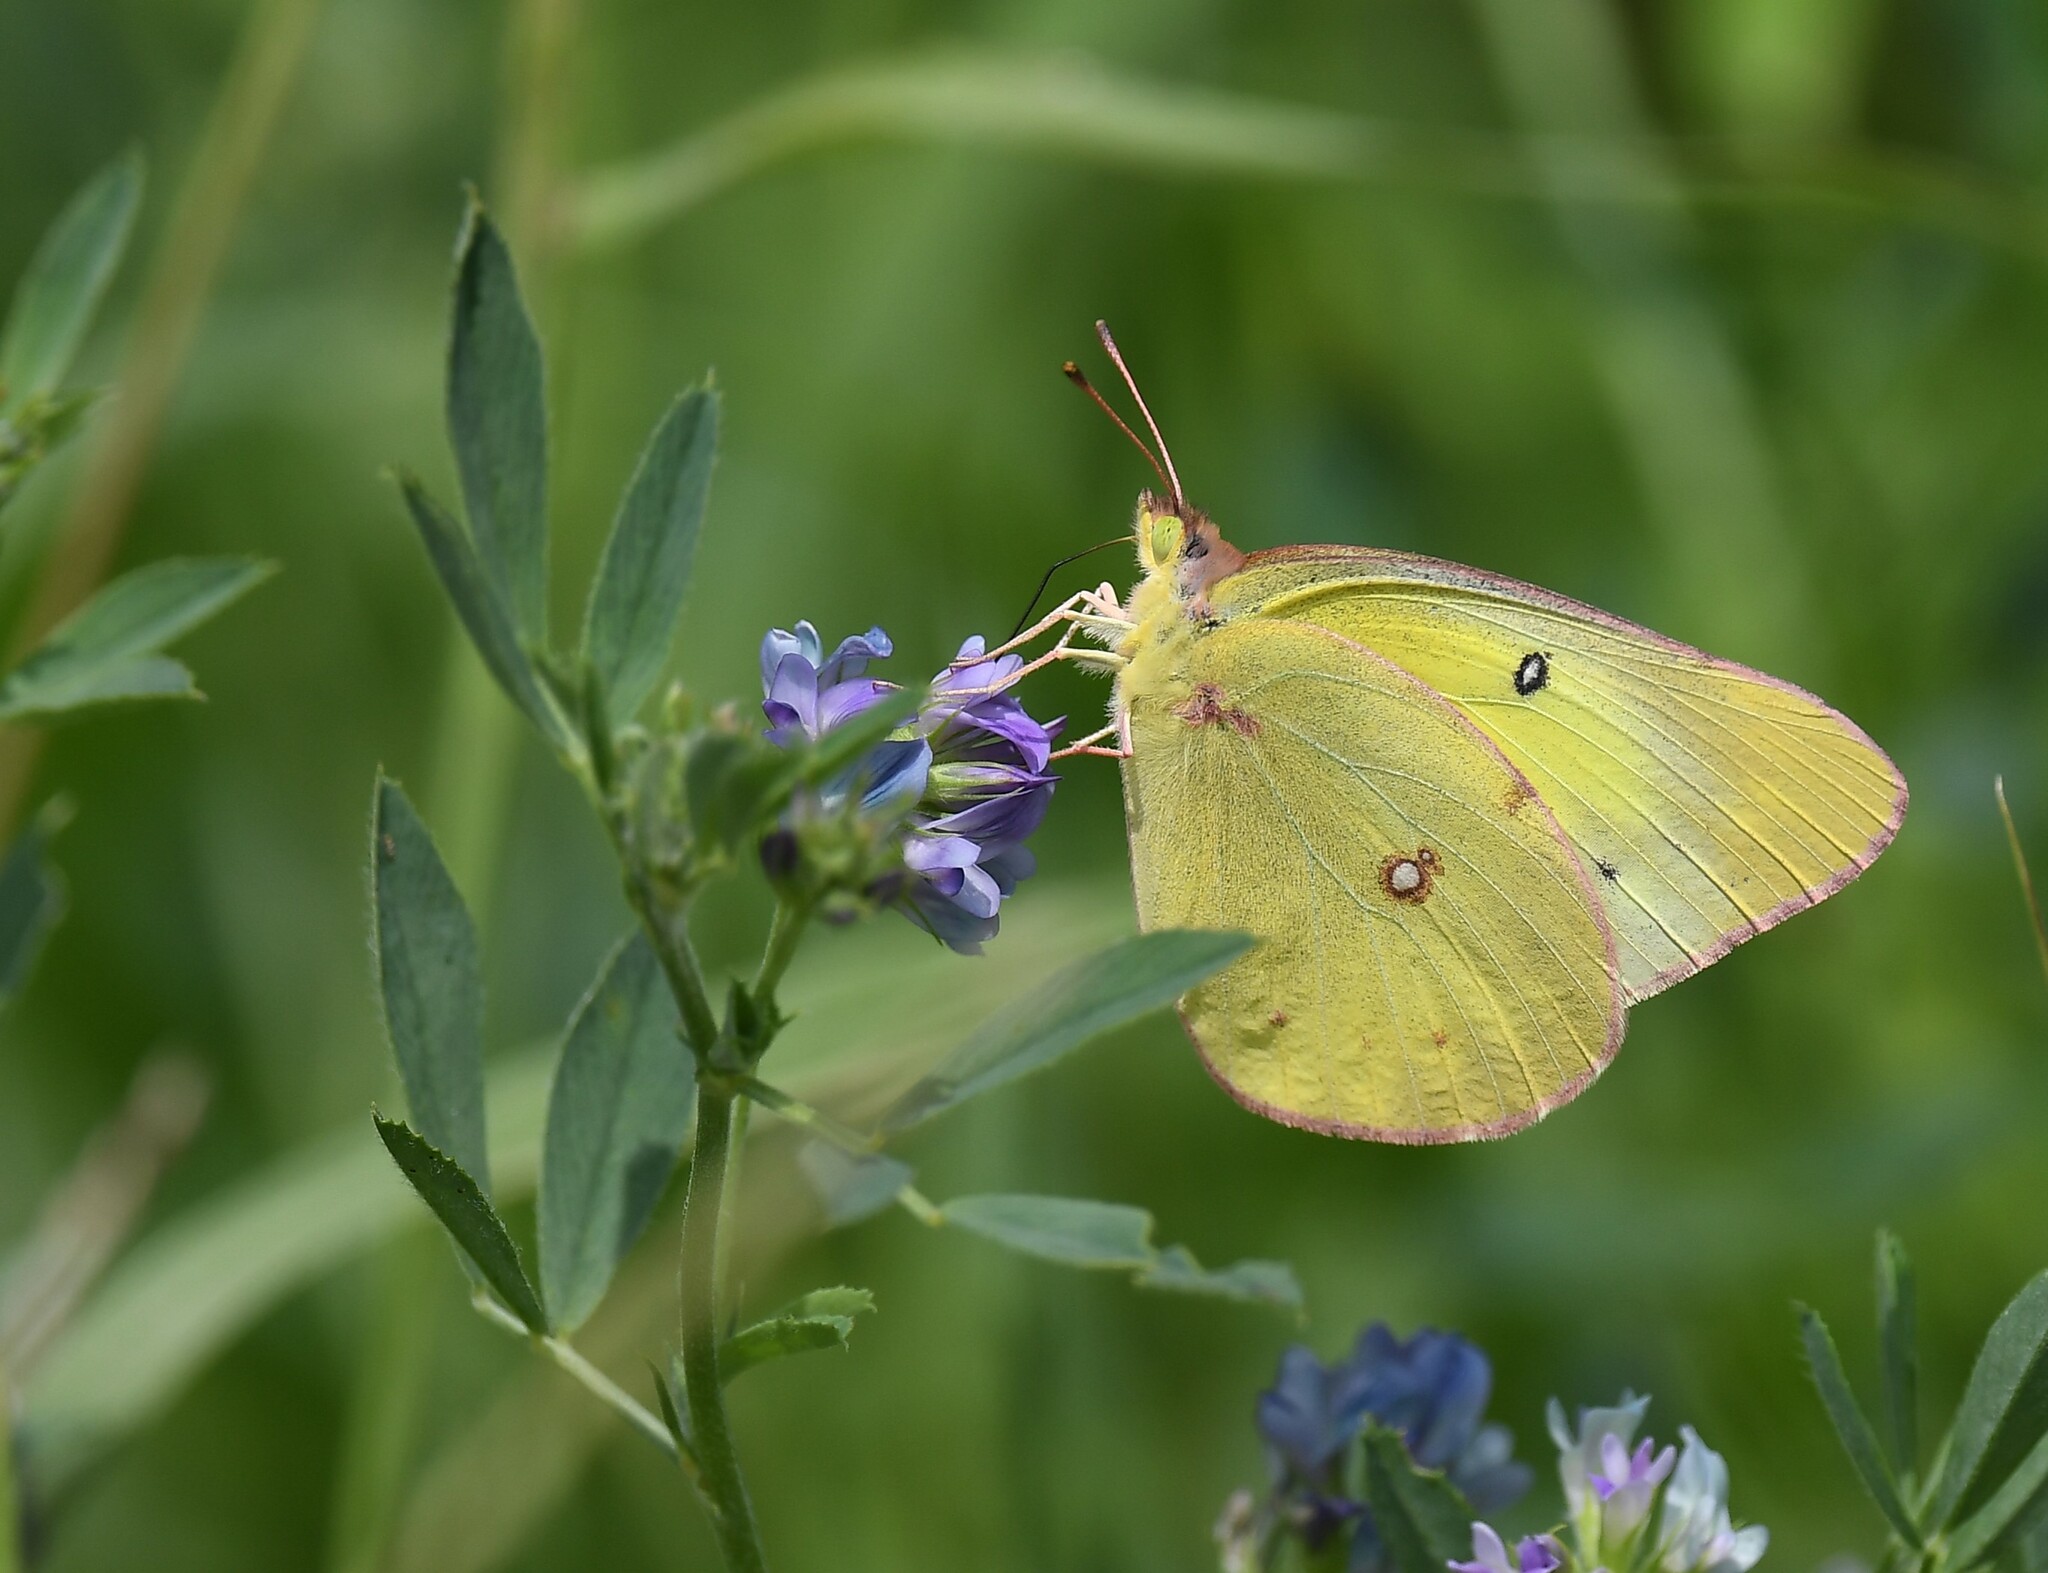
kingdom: Animalia
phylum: Arthropoda
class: Insecta
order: Lepidoptera
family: Pieridae
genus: Colias
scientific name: Colias philodice
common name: Clouded sulphur
